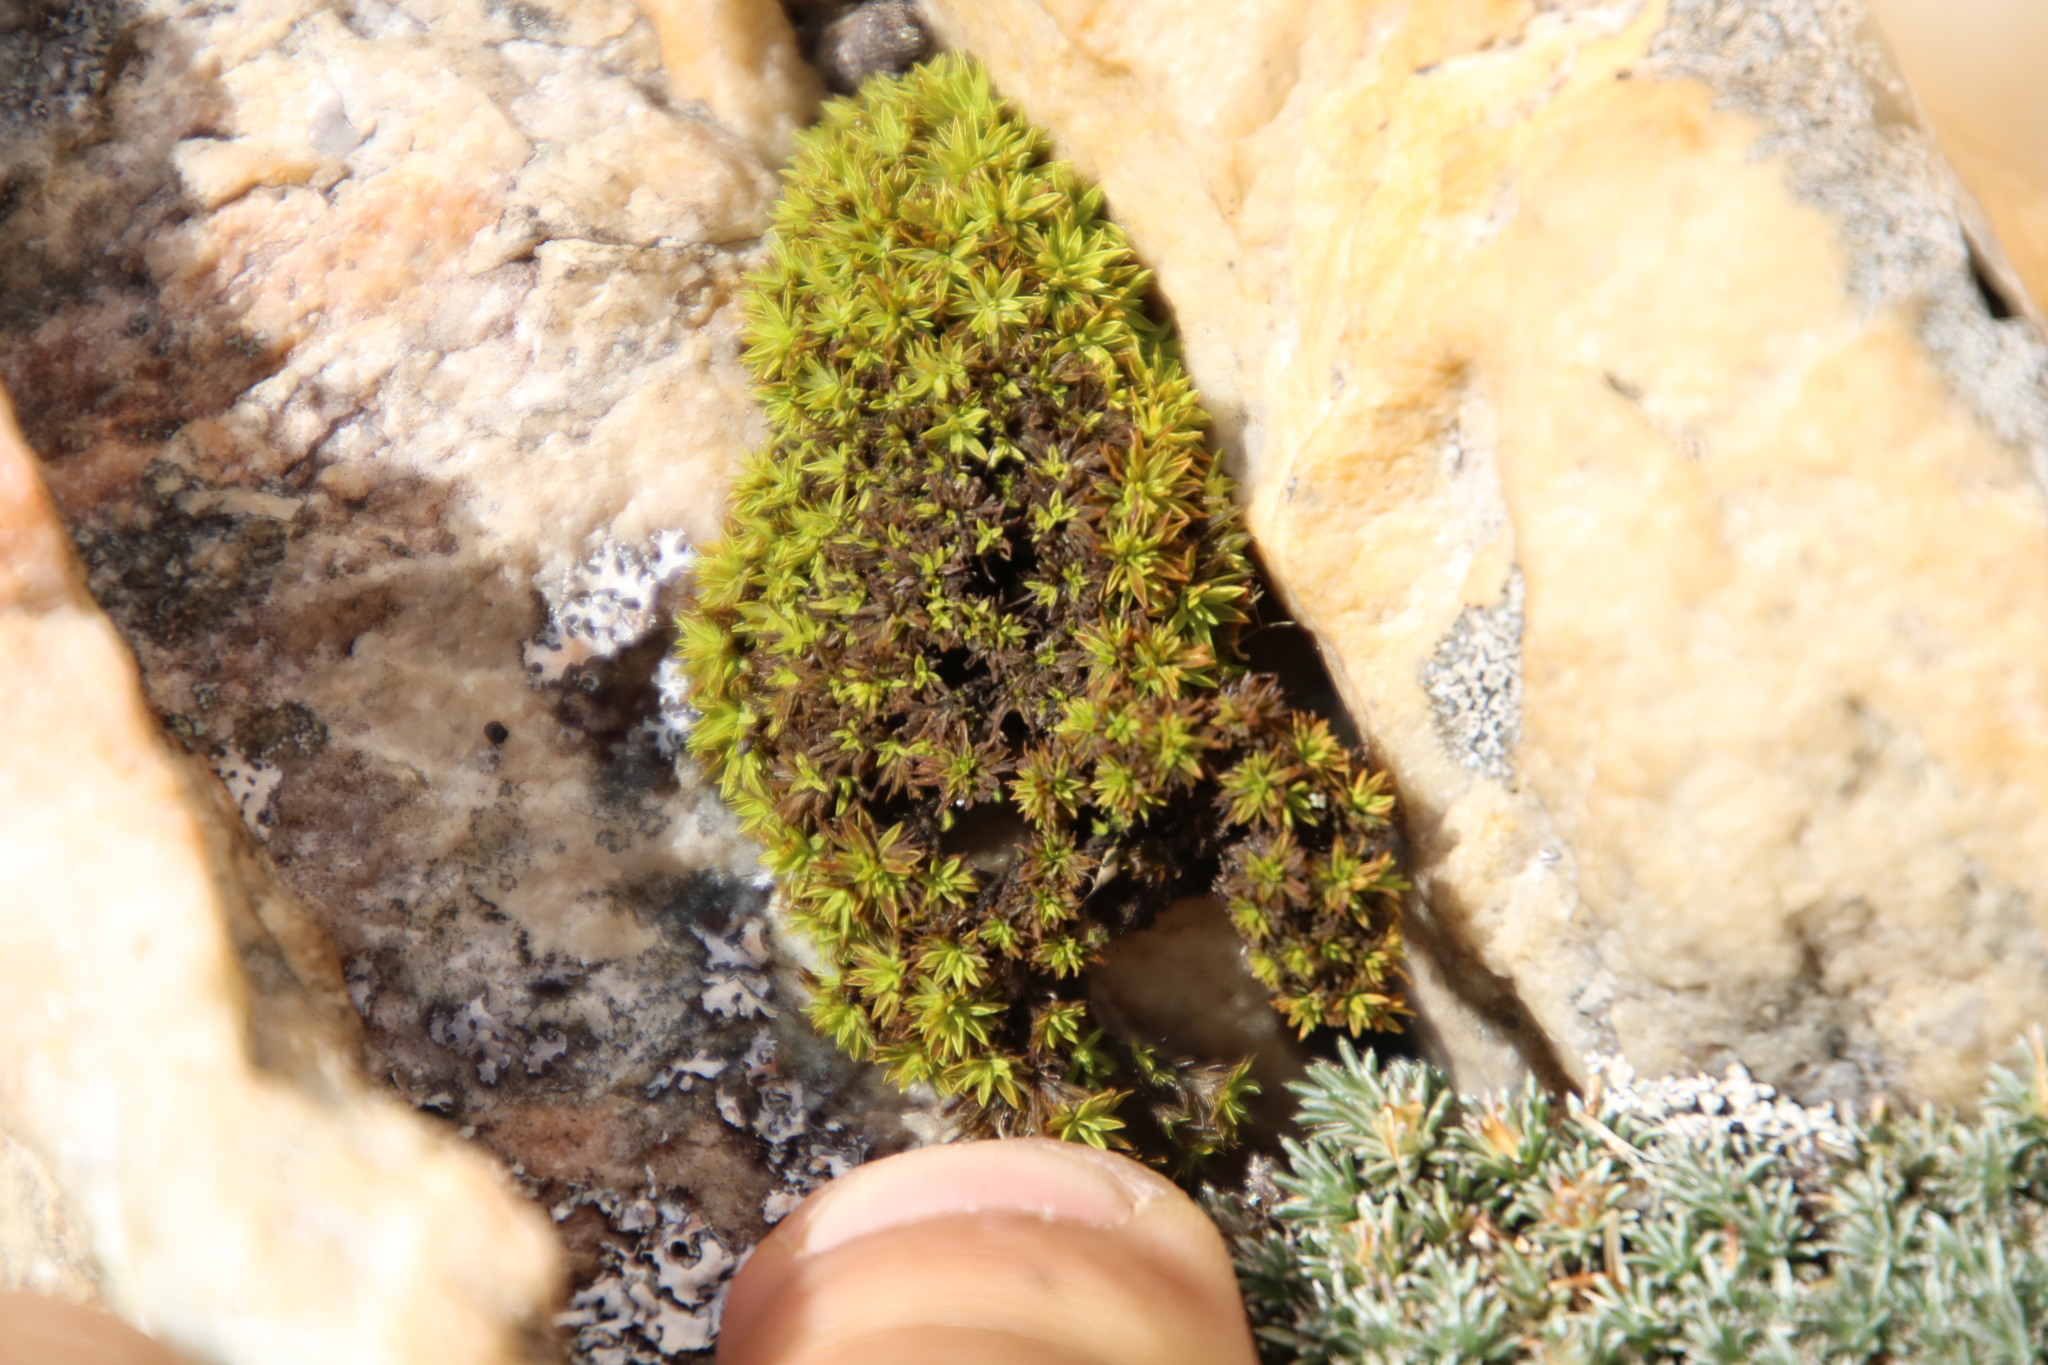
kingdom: Plantae
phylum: Bryophyta
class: Bryopsida
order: Dicranales
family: Hypodontiaceae
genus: Hypodontium
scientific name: Hypodontium dregei
